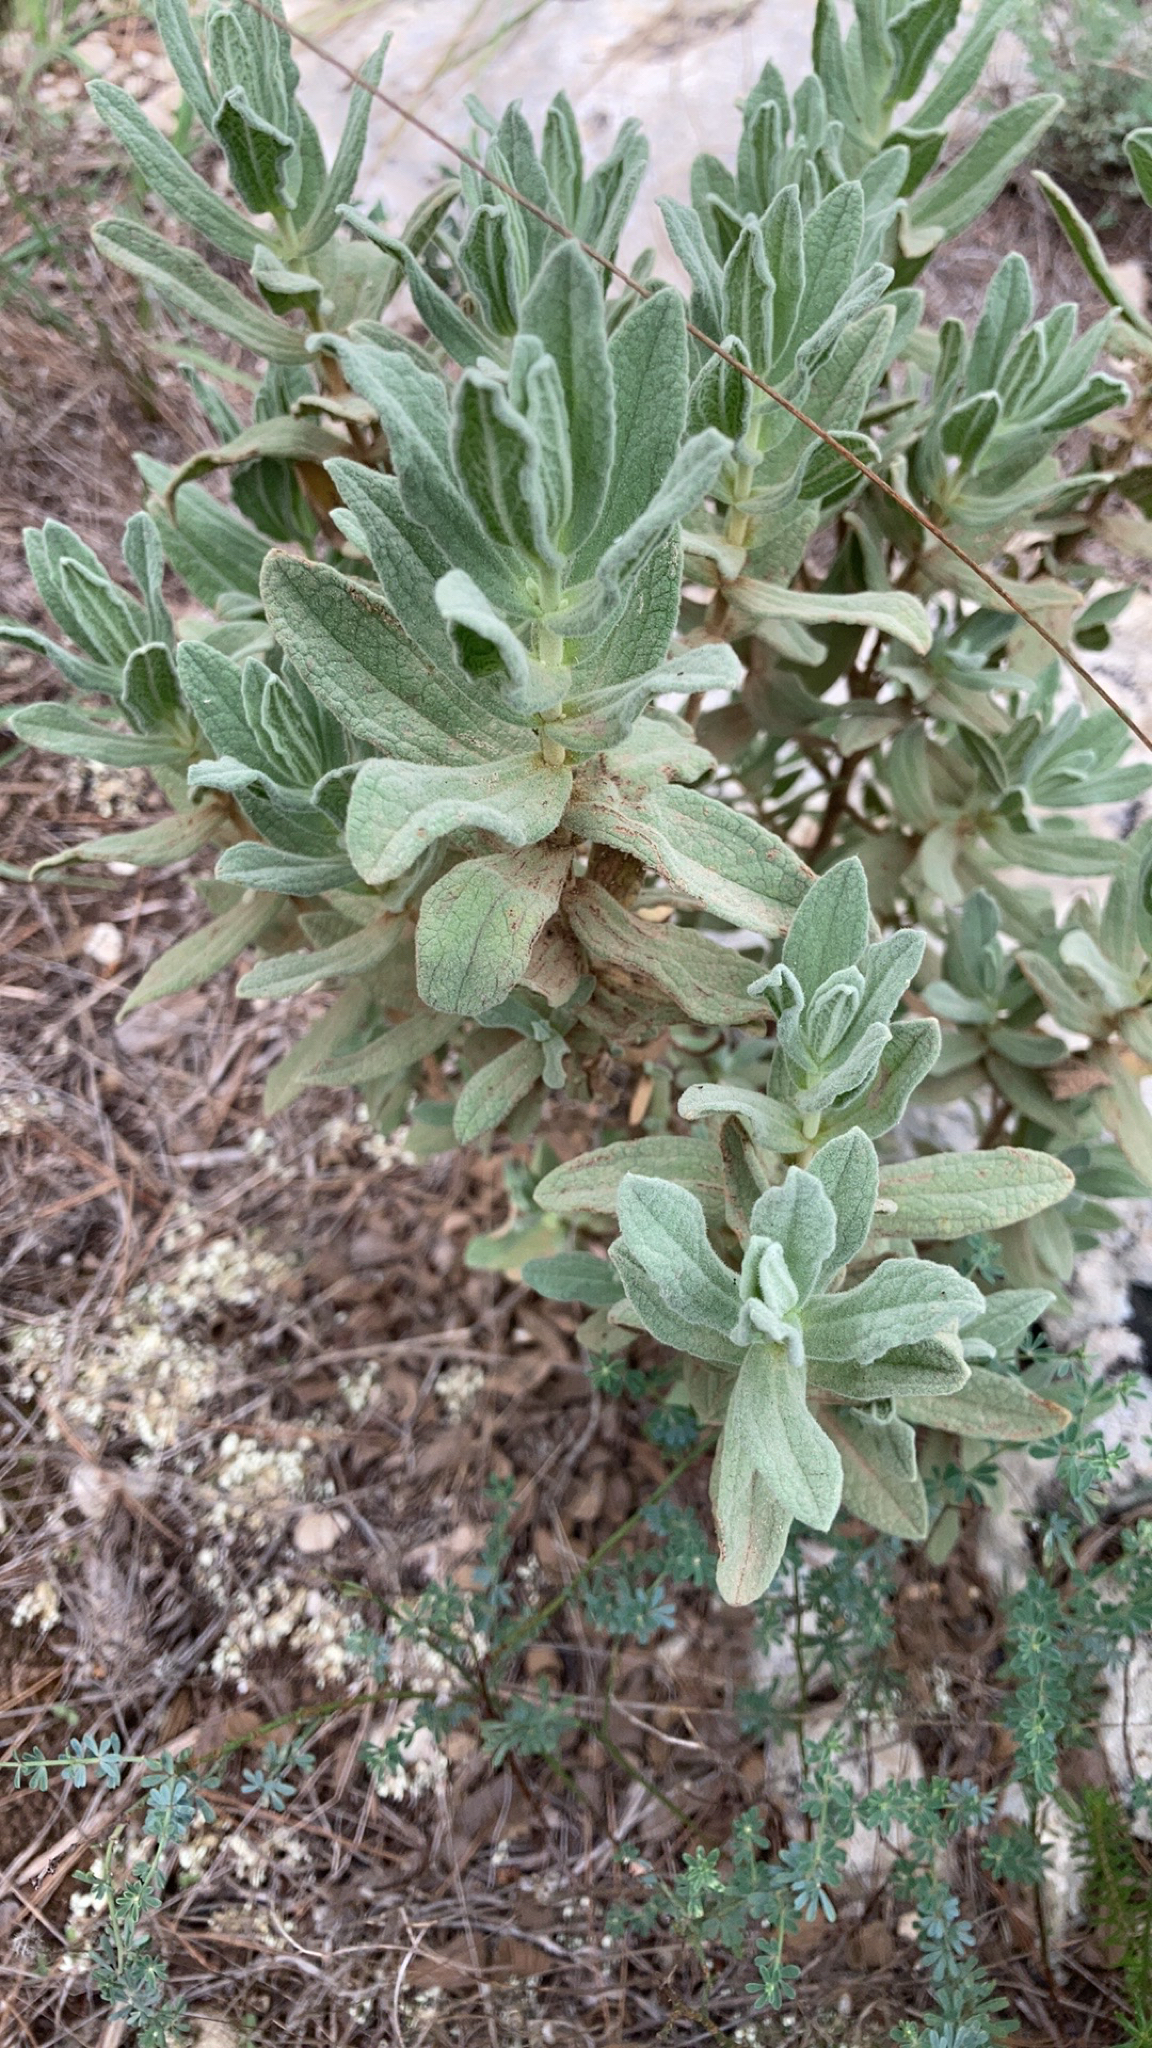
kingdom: Plantae
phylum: Tracheophyta
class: Magnoliopsida
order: Malvales
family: Cistaceae
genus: Cistus
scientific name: Cistus albidus
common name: White-leaf rock-rose
